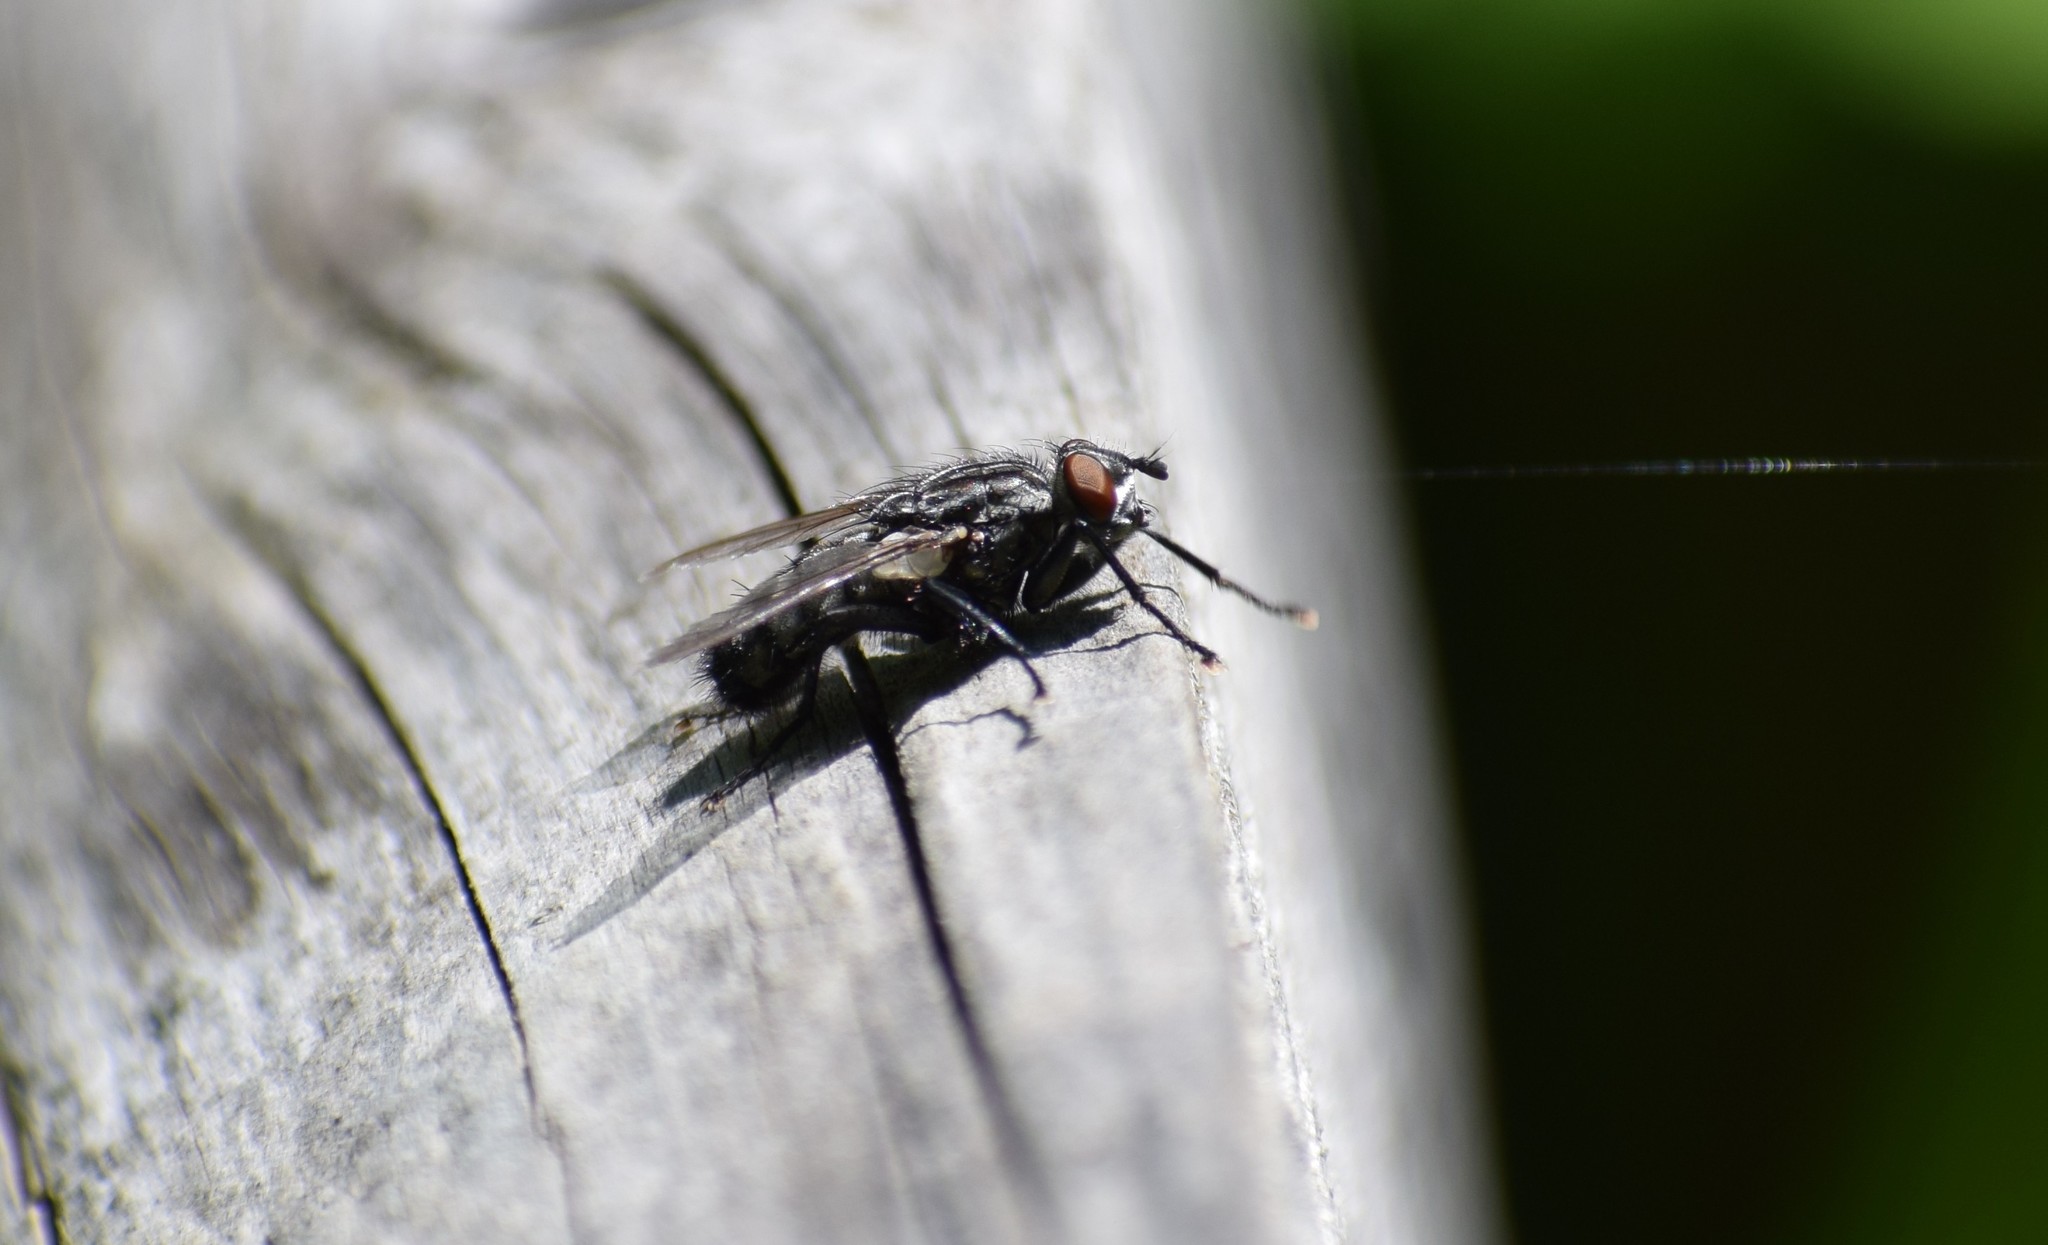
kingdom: Animalia
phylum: Arthropoda
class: Insecta
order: Diptera
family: Sarcophagidae
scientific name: Sarcophagidae
